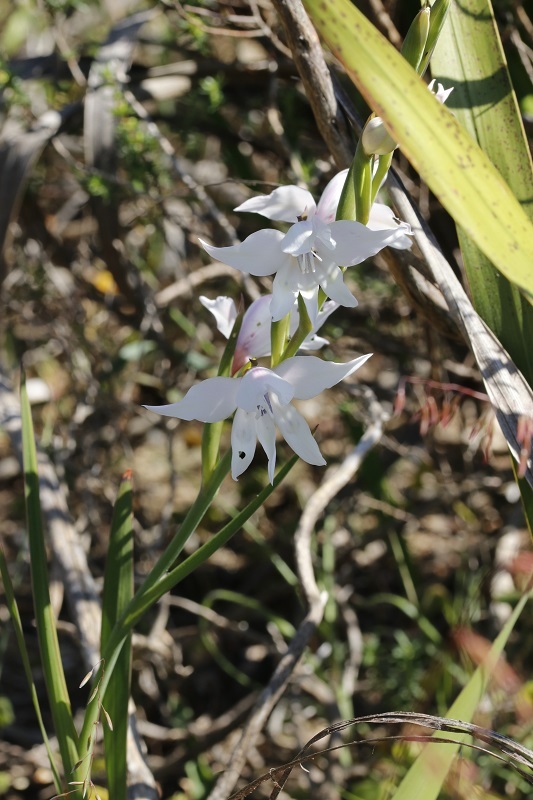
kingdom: Plantae
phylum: Tracheophyta
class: Liliopsida
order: Asparagales
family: Iridaceae
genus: Gladiolus
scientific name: Gladiolus carneus
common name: Painted-lady
